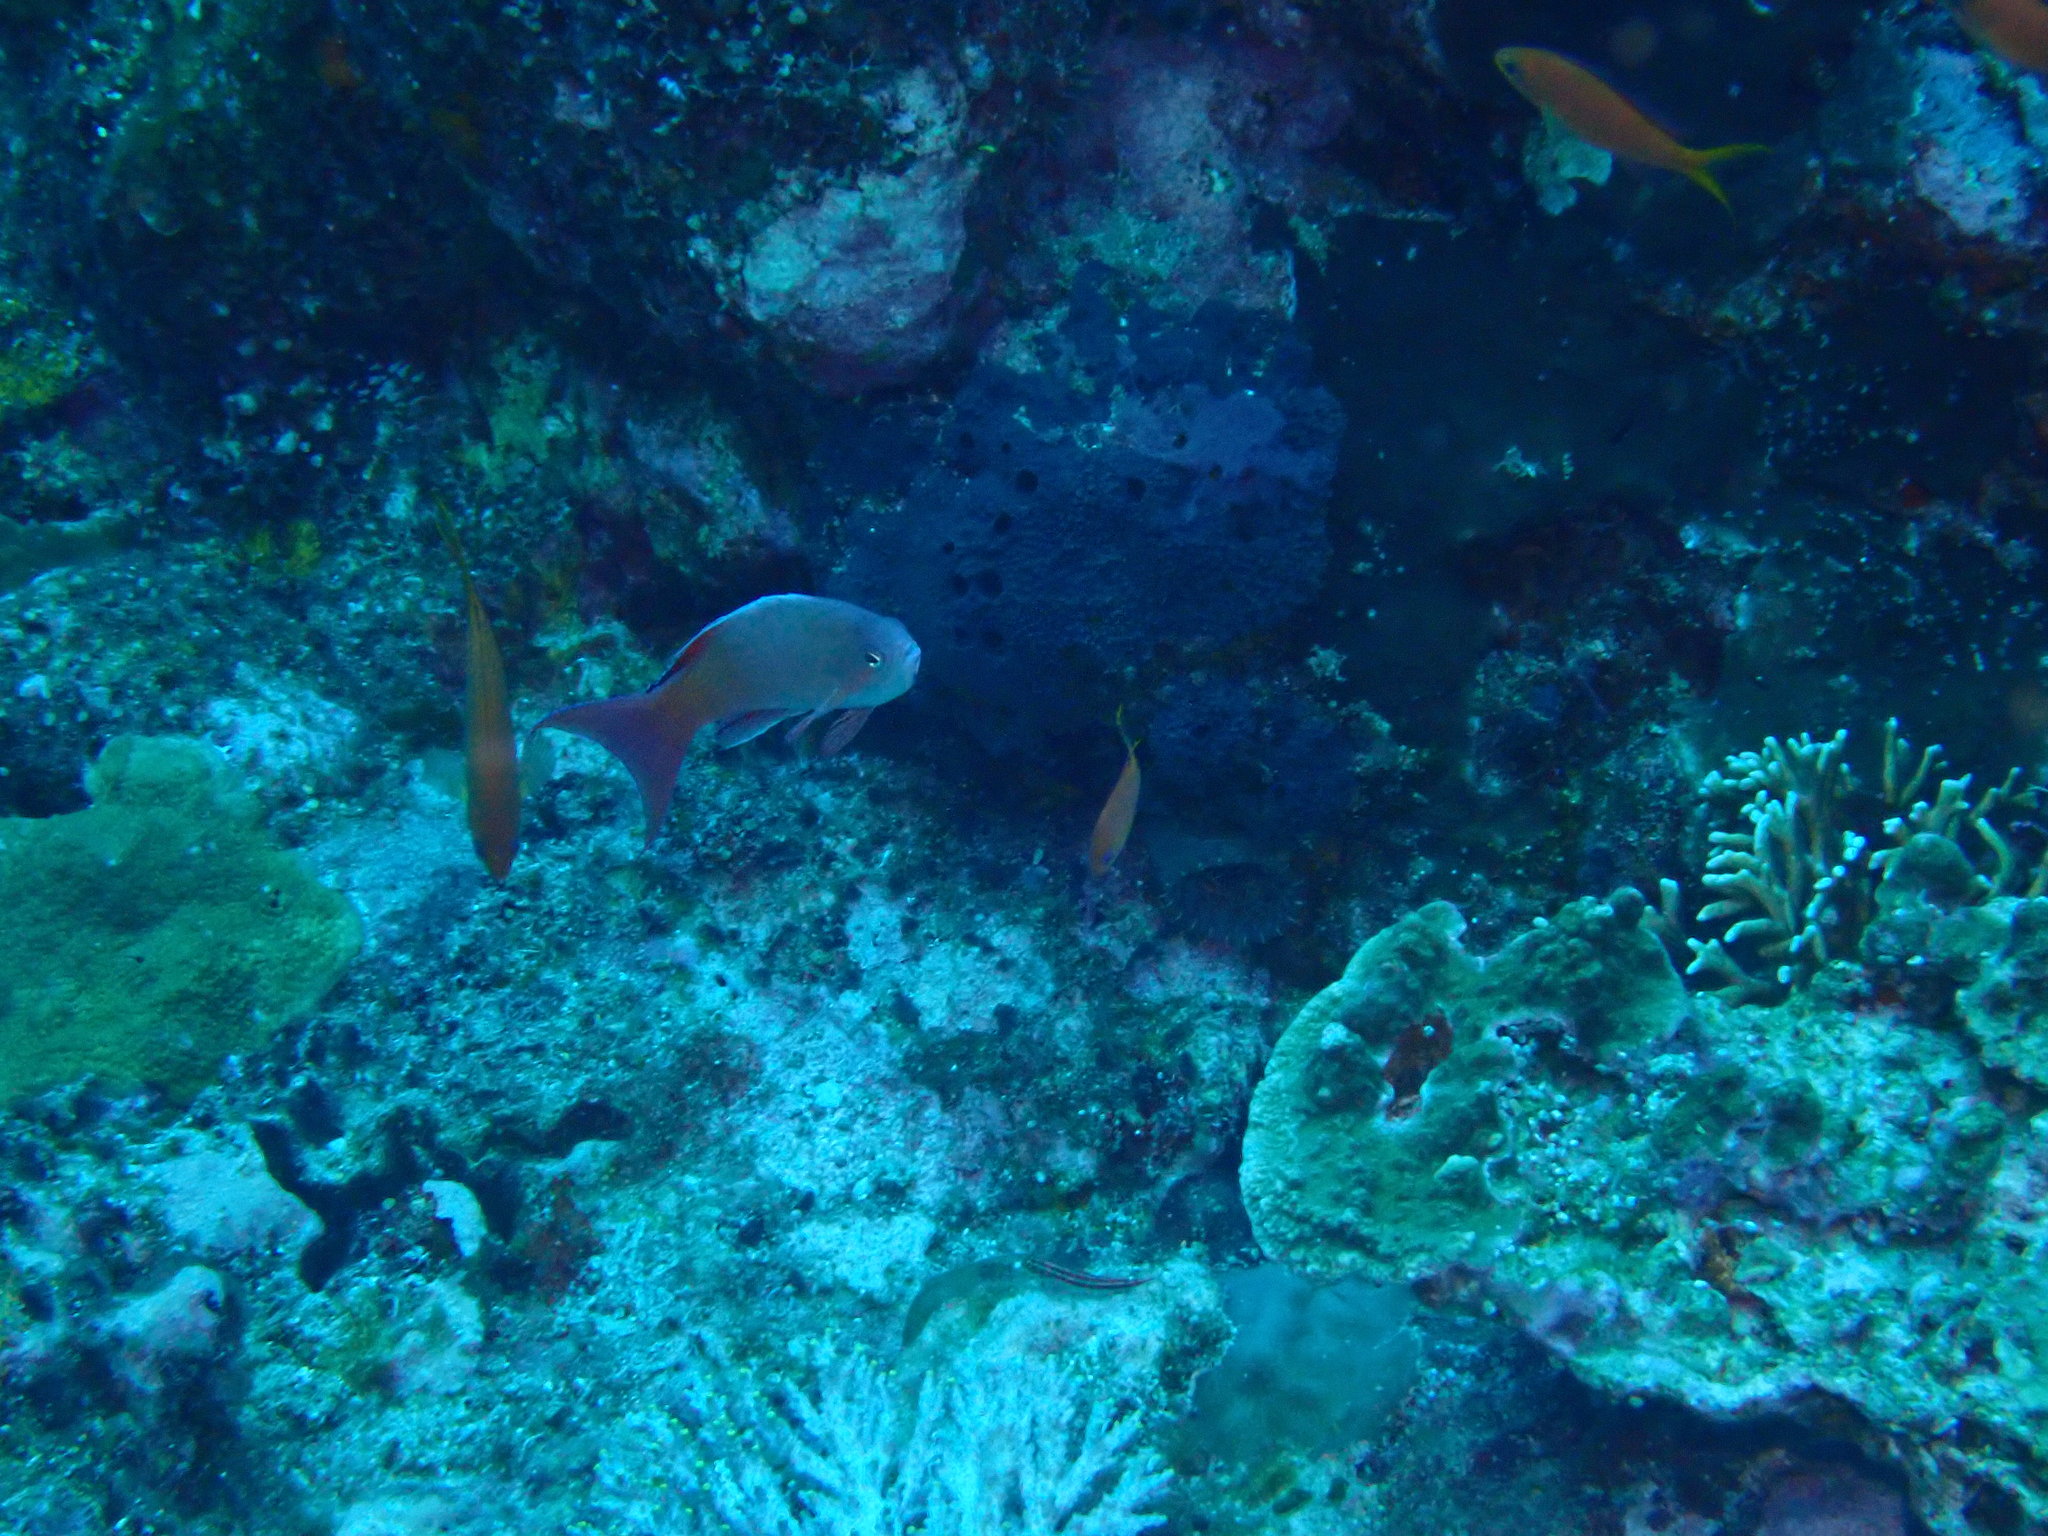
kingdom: Animalia
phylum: Chordata
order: Perciformes
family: Serranidae
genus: Pseudanthias
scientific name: Pseudanthias squamipinnis
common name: Scalefin anthias
